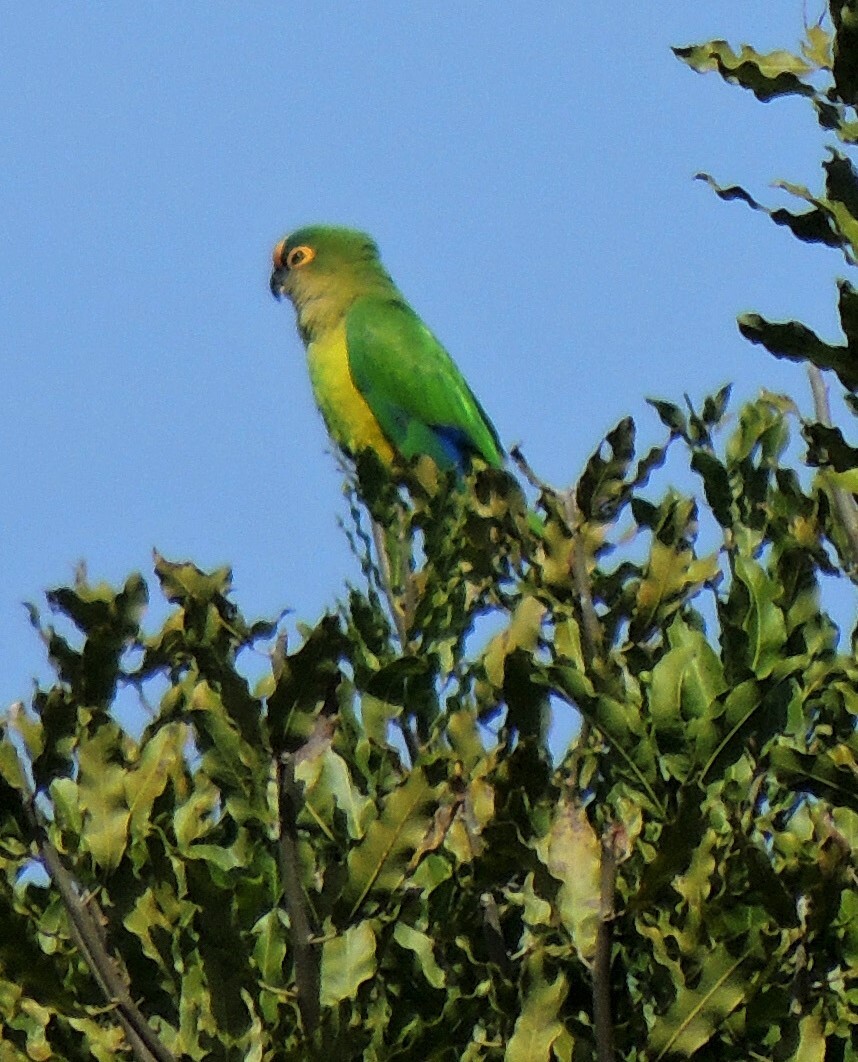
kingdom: Animalia
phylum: Chordata
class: Aves
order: Psittaciformes
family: Psittacidae
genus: Aratinga
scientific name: Aratinga aurea
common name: Peach-fronted parakeet
